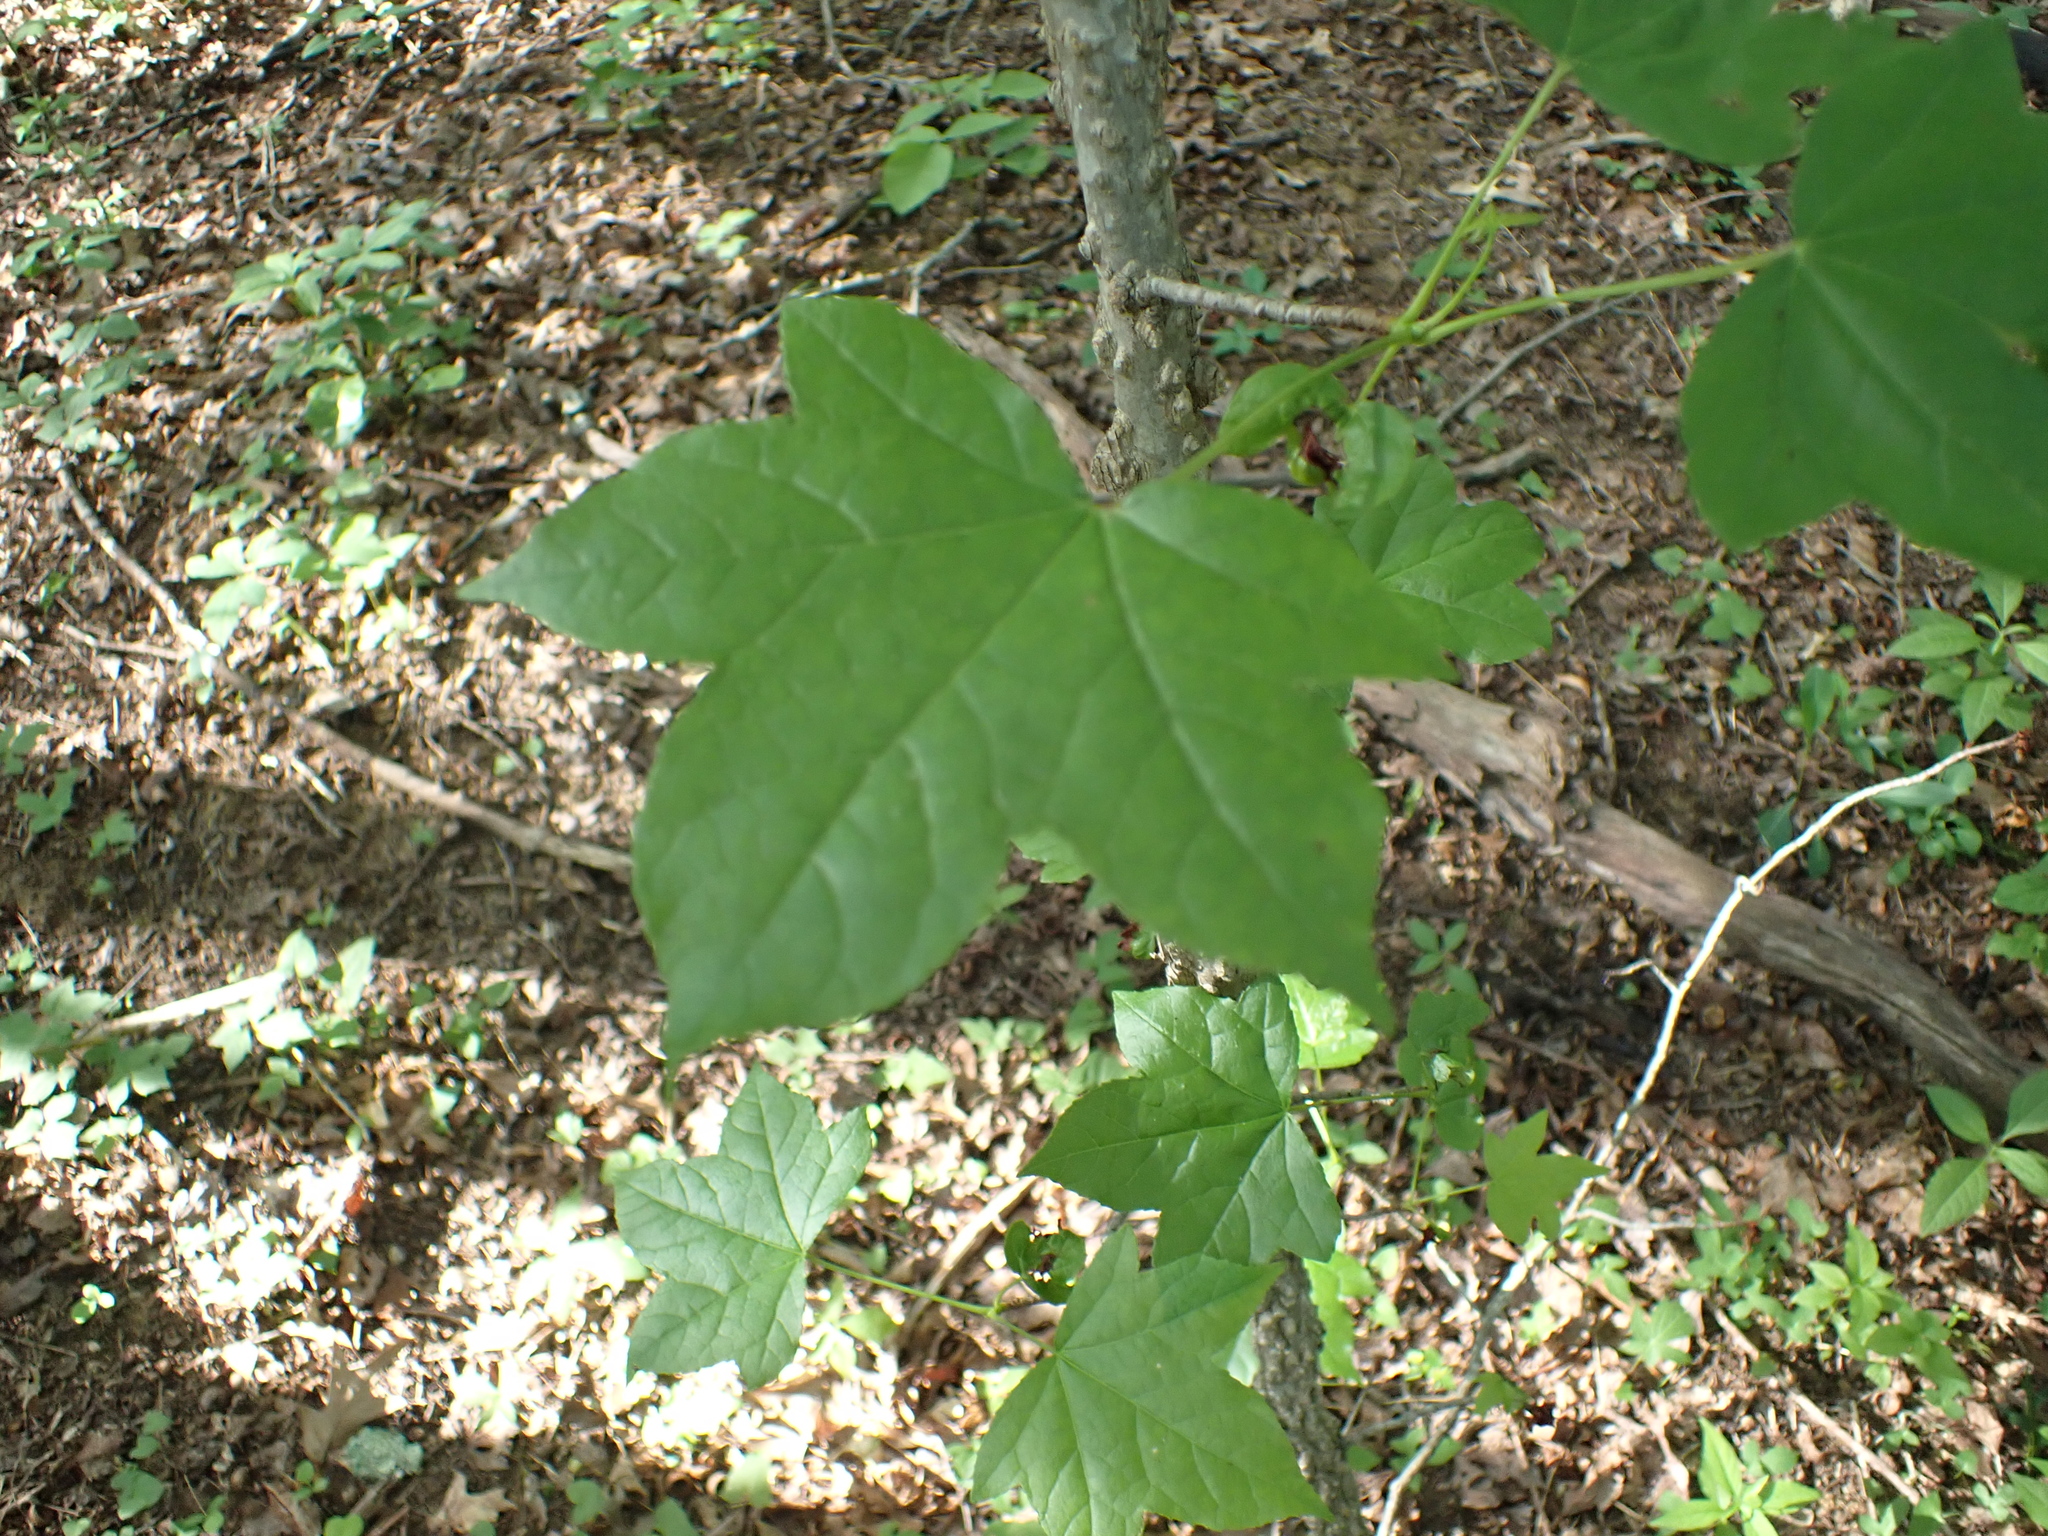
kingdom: Plantae
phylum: Tracheophyta
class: Magnoliopsida
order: Saxifragales
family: Altingiaceae
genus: Liquidambar
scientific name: Liquidambar styraciflua
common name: Sweet gum
